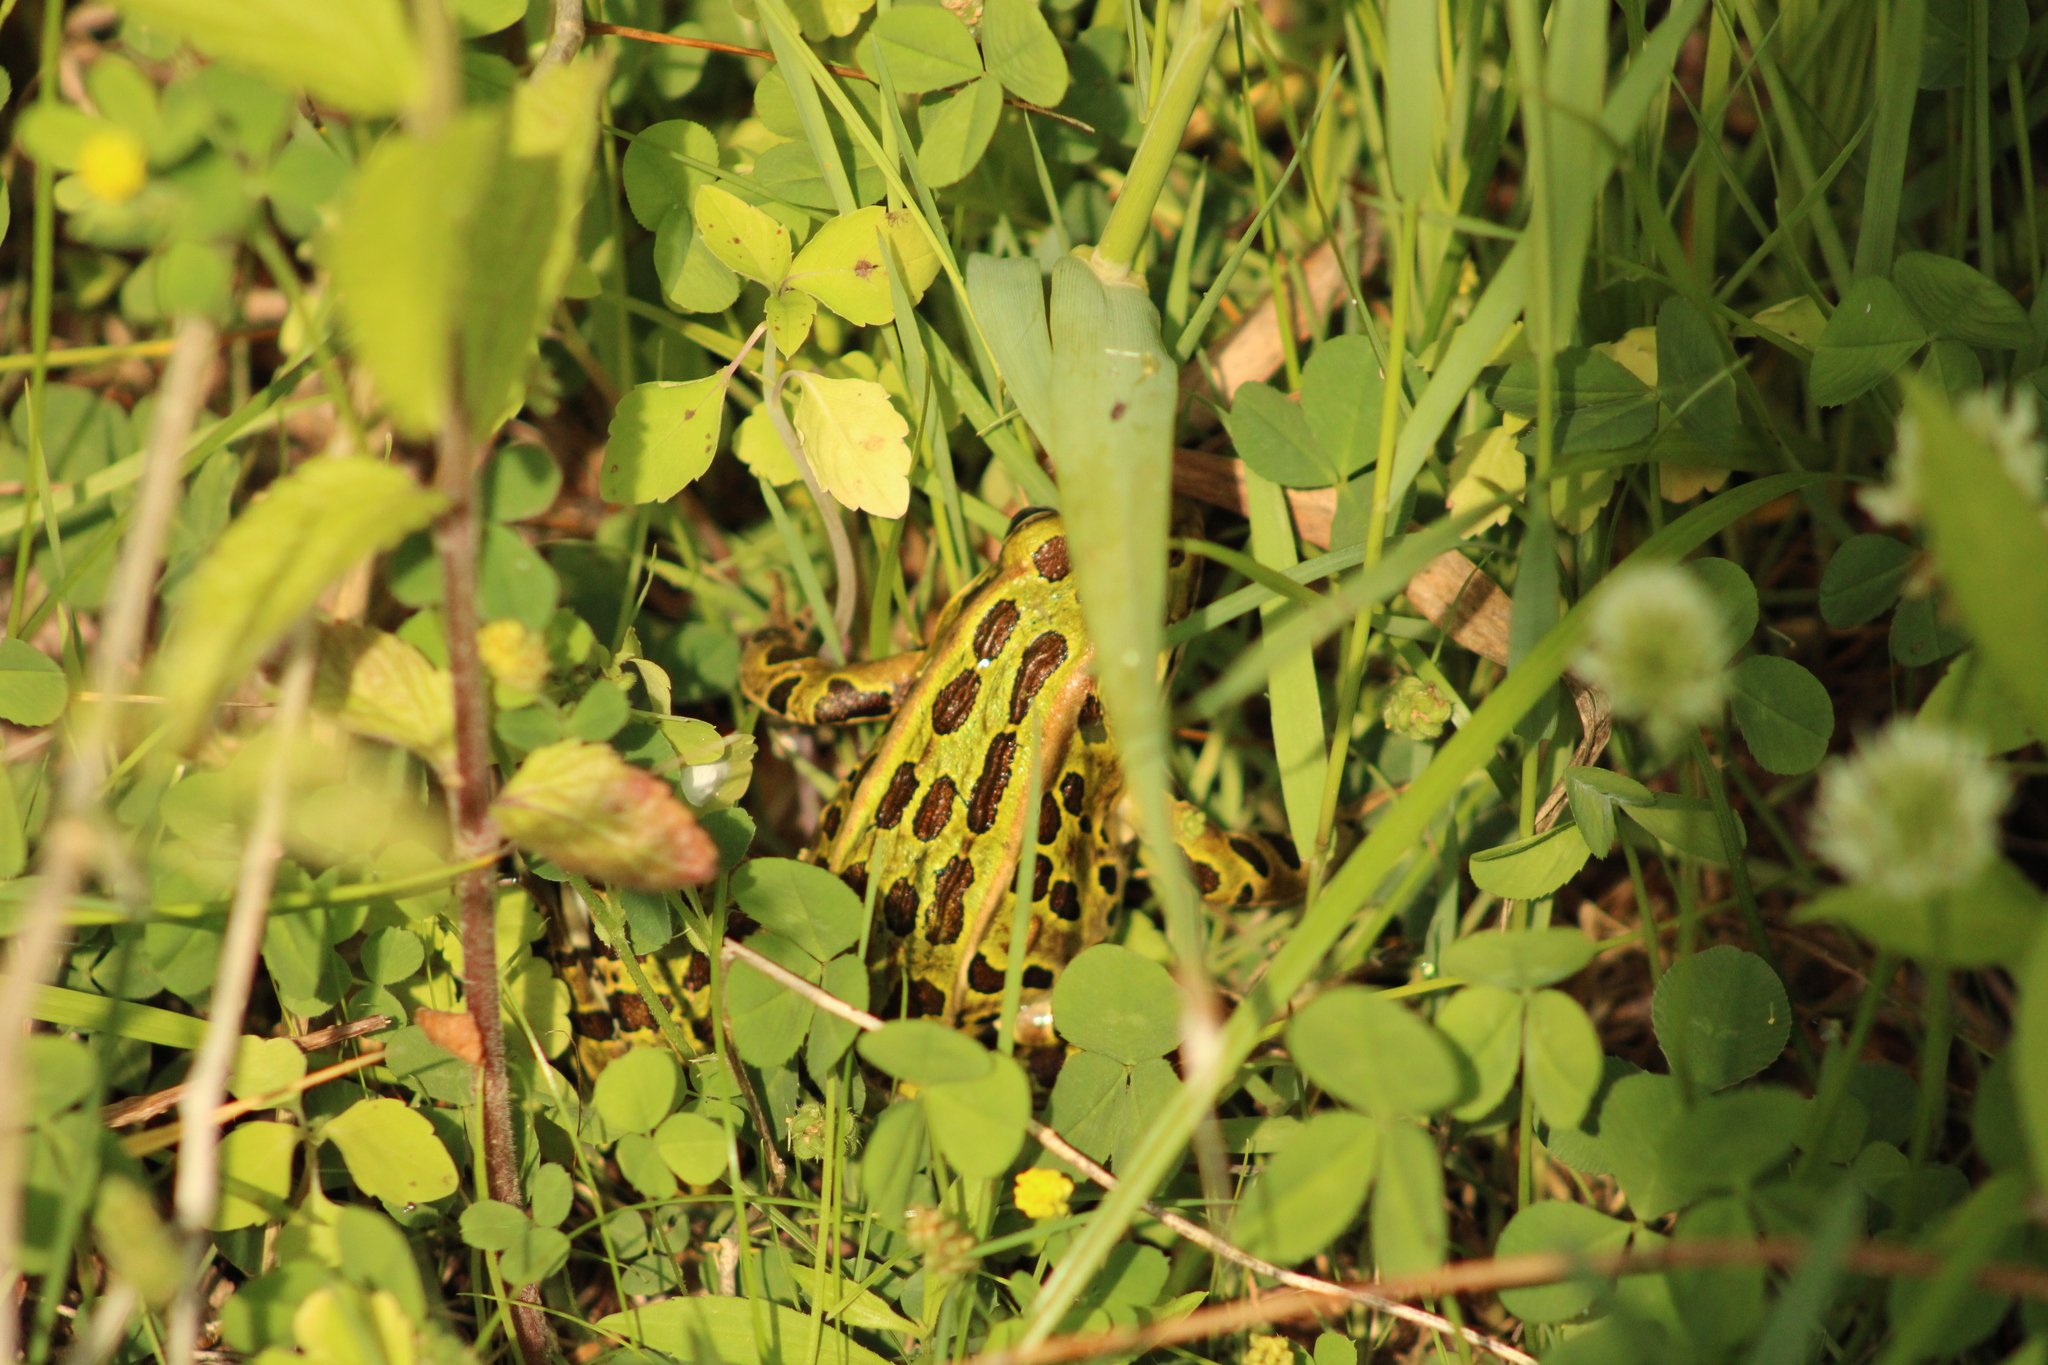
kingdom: Animalia
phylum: Chordata
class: Amphibia
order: Anura
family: Ranidae
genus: Lithobates
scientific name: Lithobates pipiens
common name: Northern leopard frog
